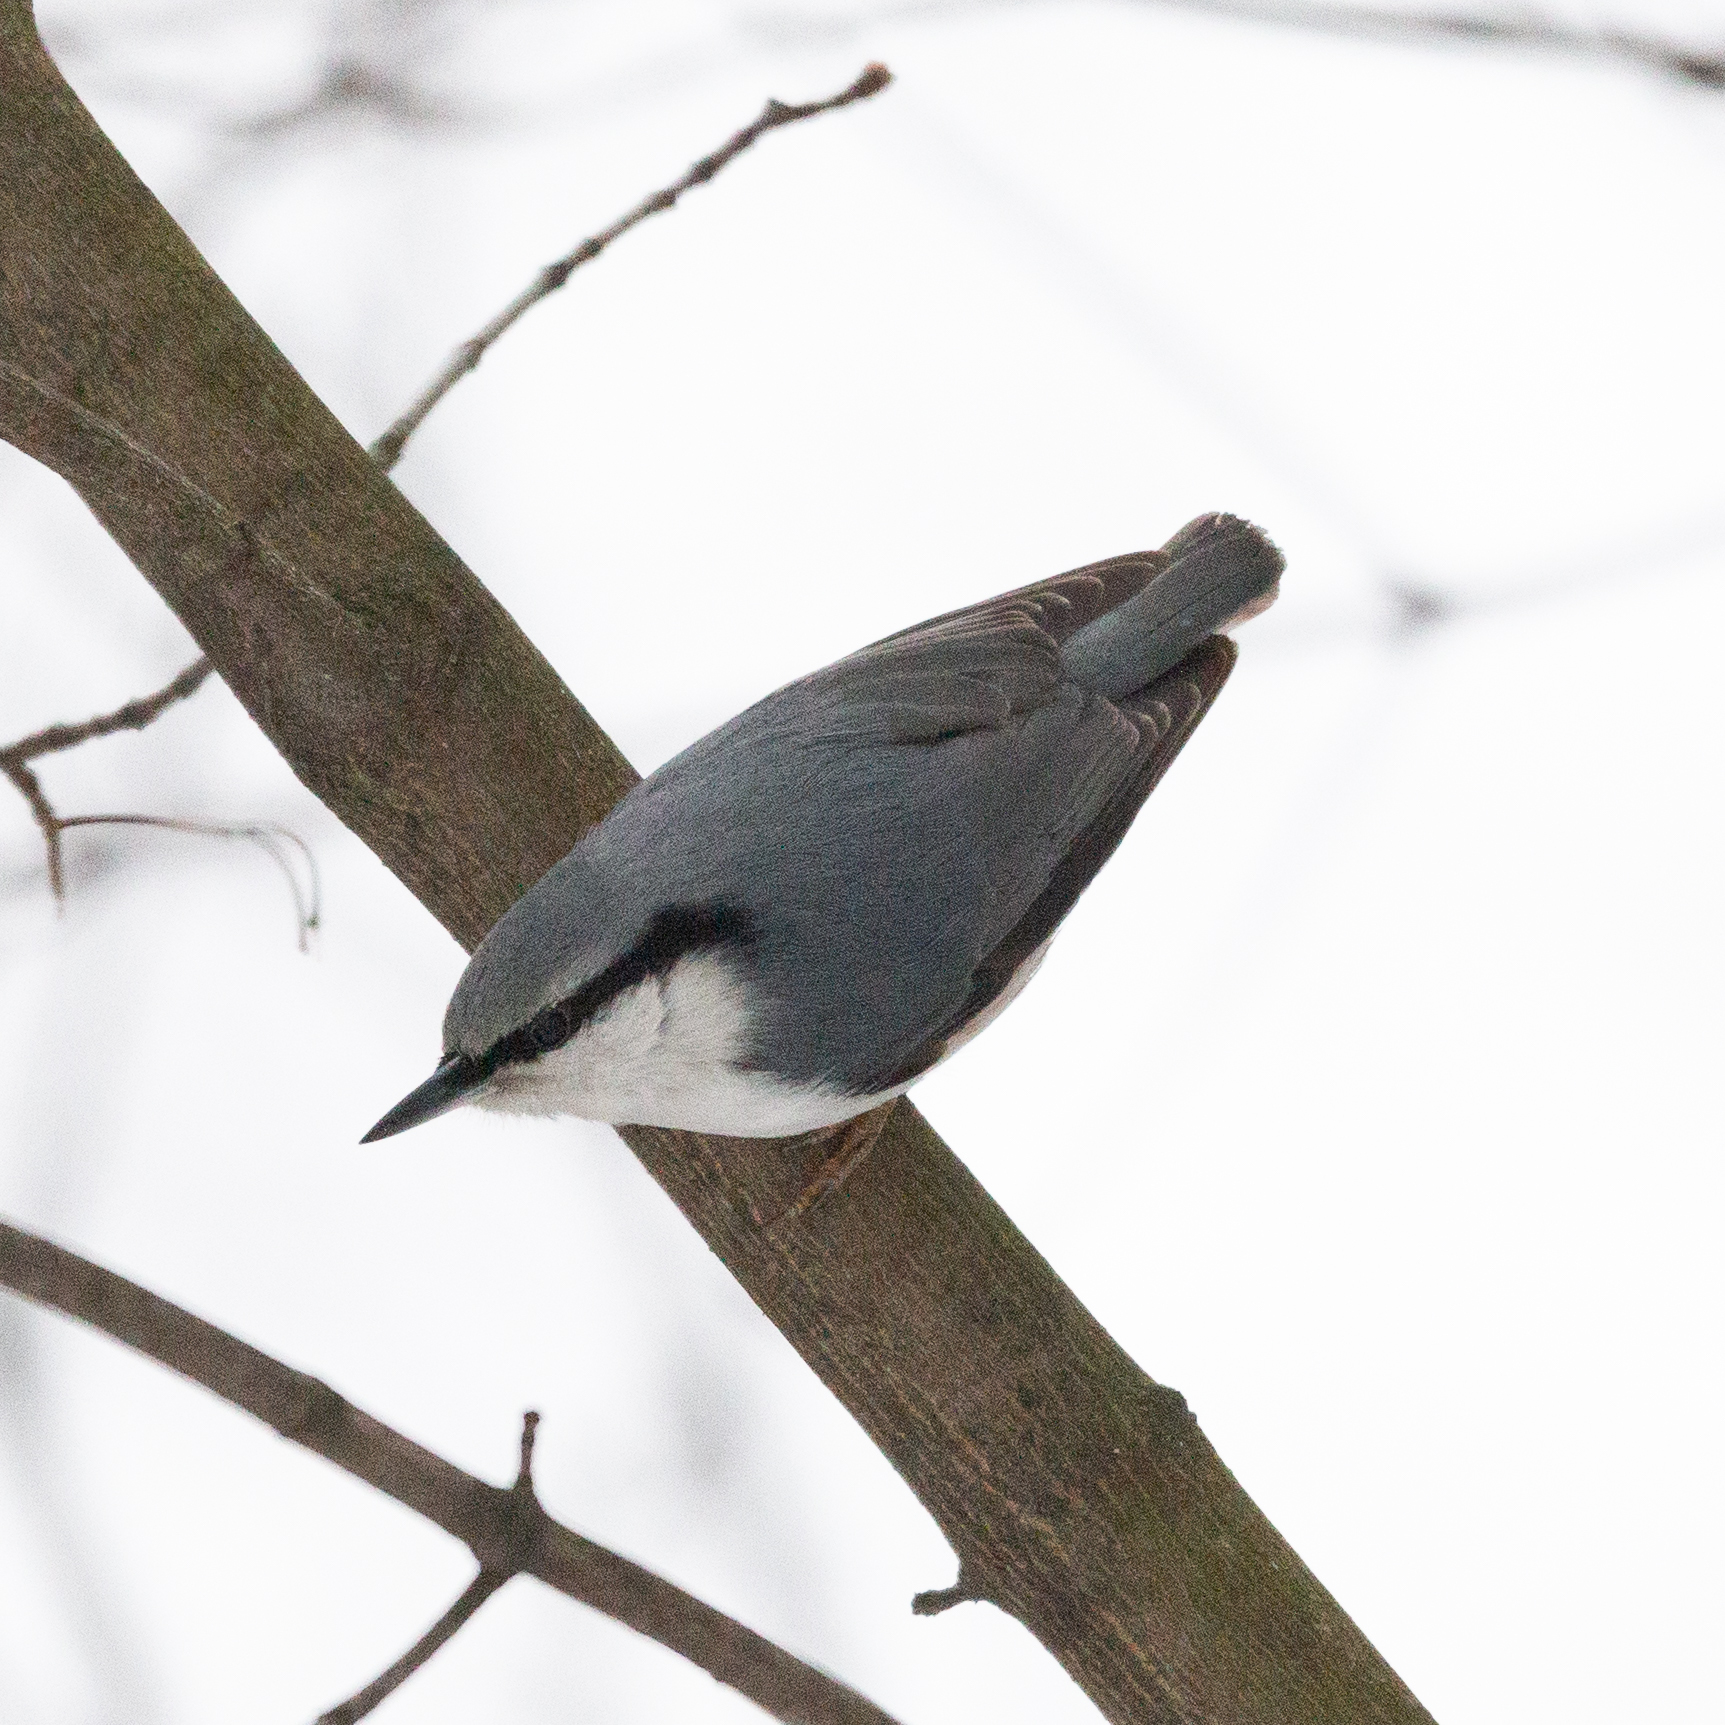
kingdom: Animalia
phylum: Chordata
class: Aves
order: Passeriformes
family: Sittidae
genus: Sitta
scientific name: Sitta europaea
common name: Eurasian nuthatch
